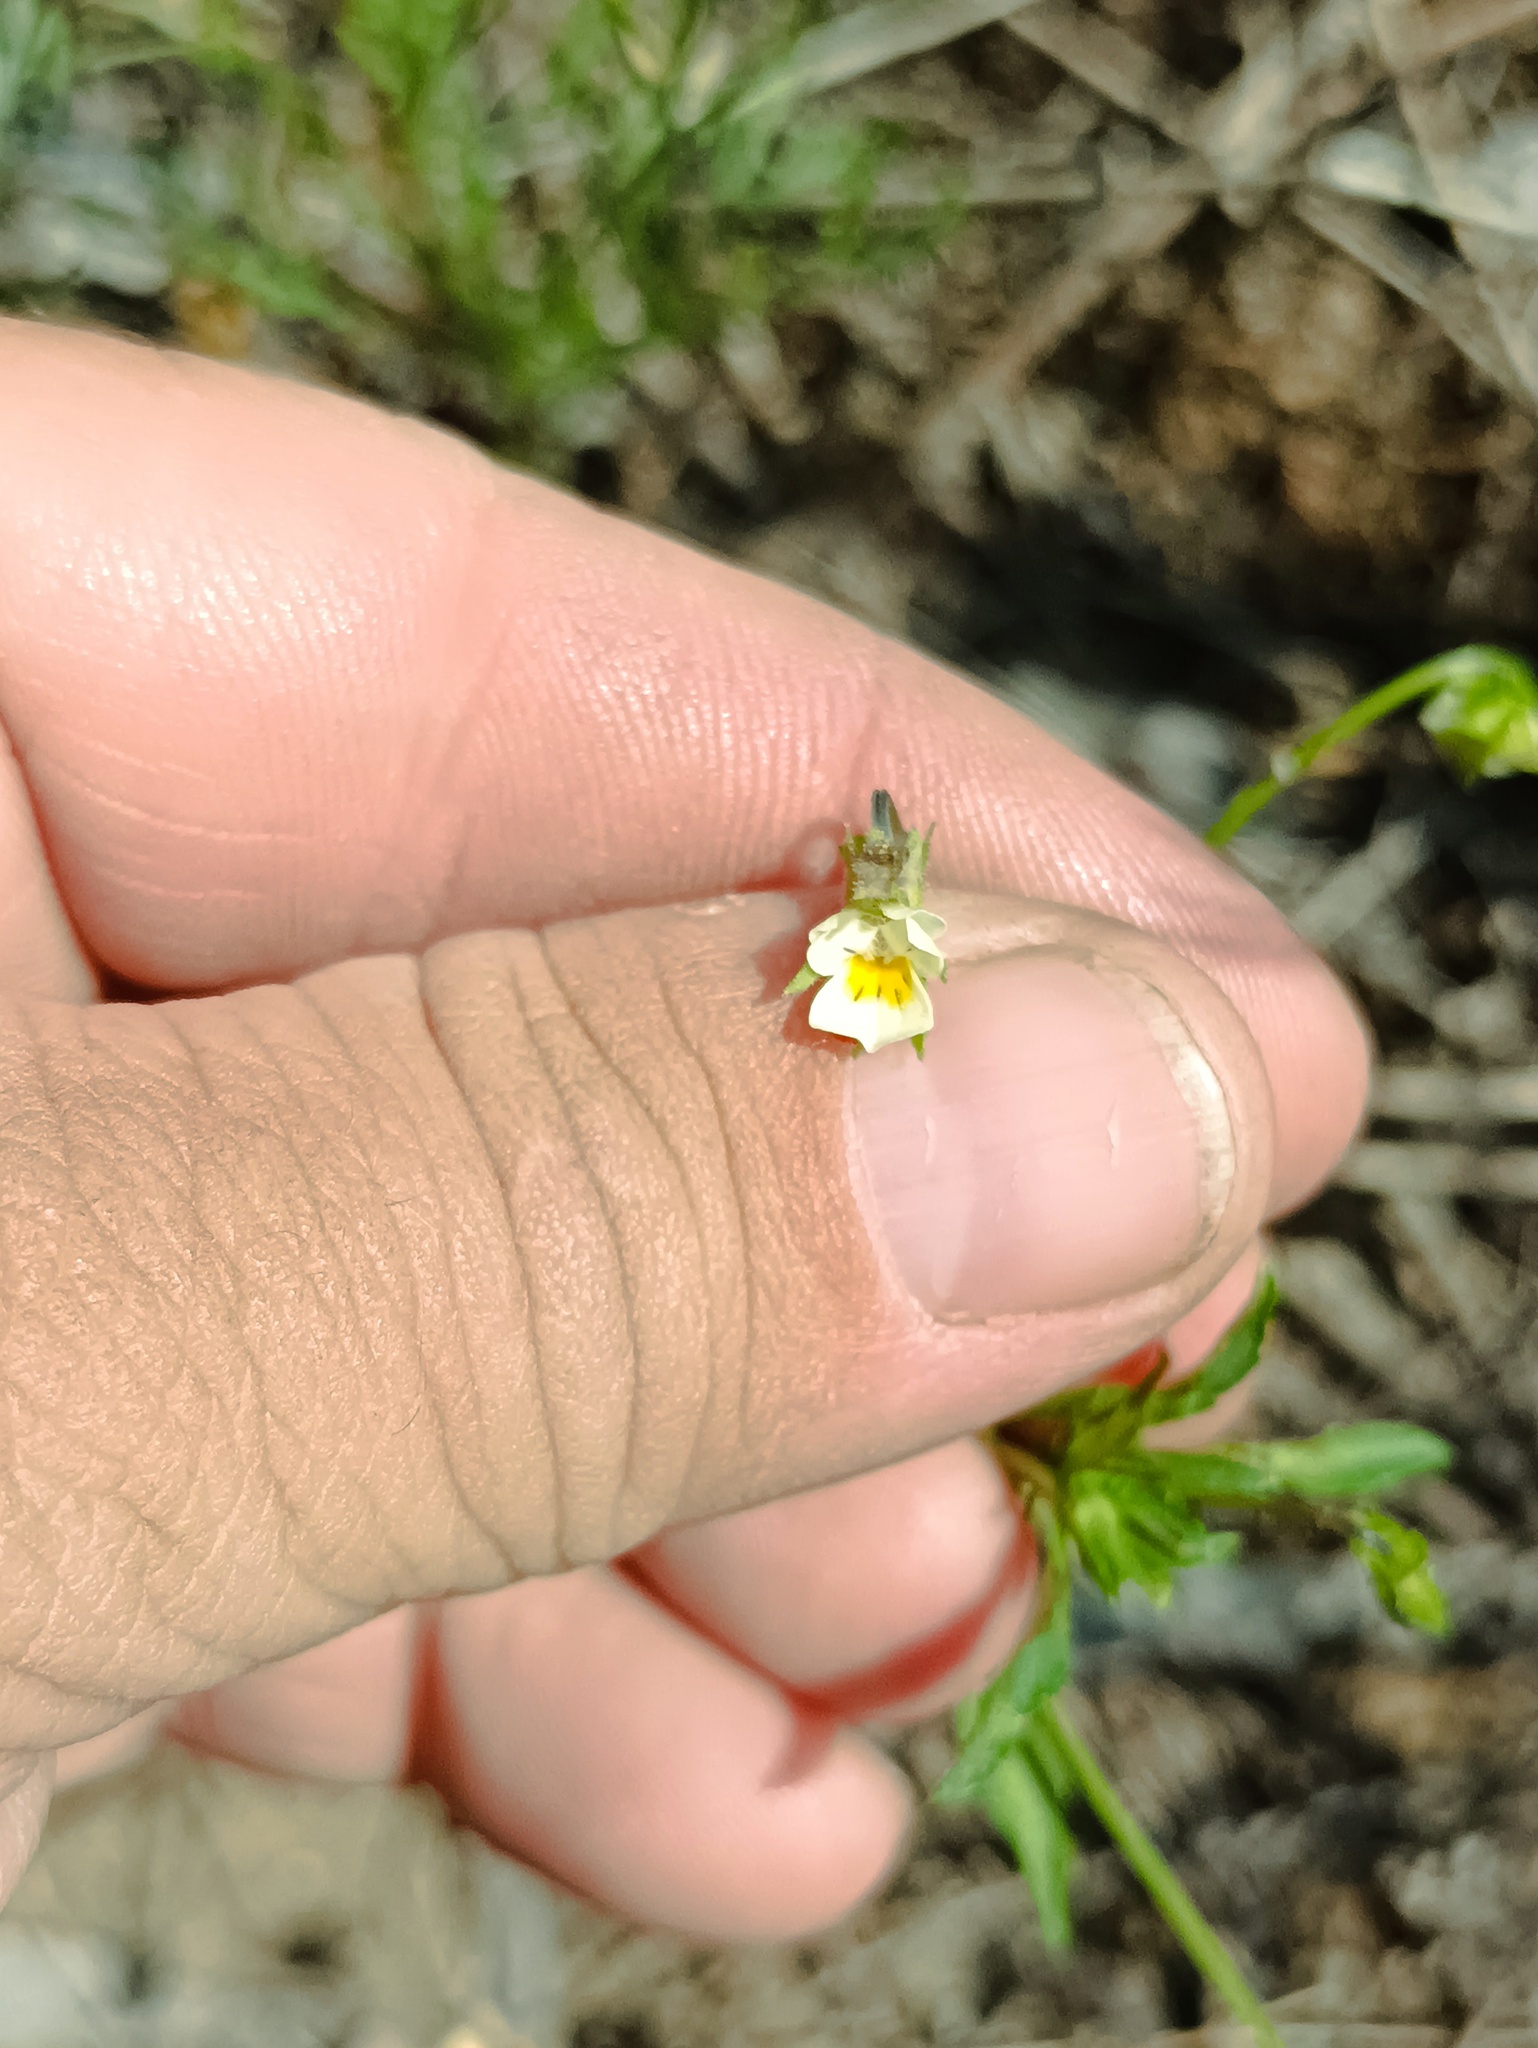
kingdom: Plantae
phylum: Tracheophyta
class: Magnoliopsida
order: Malpighiales
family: Violaceae
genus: Viola
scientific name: Viola arvensis
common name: Field pansy
